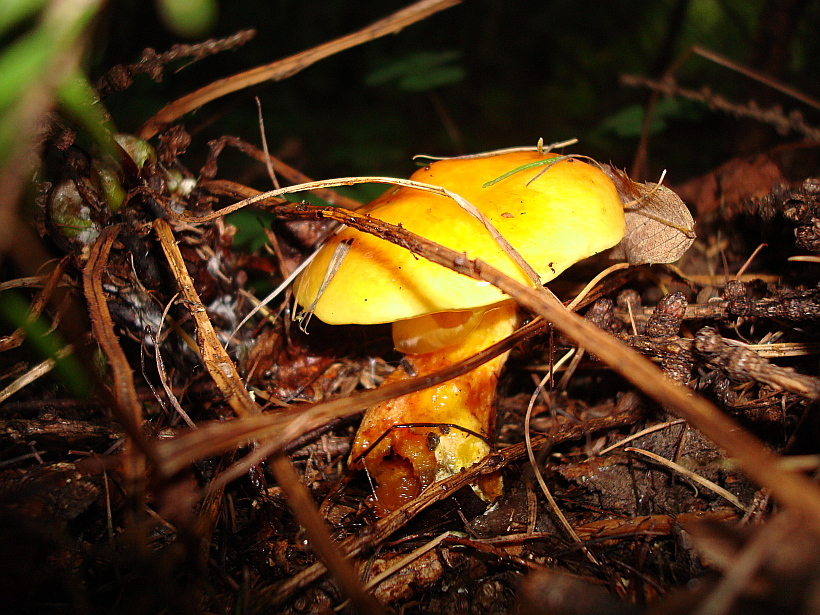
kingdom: Fungi
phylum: Basidiomycota
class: Agaricomycetes
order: Boletales
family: Suillaceae
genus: Suillus
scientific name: Suillus grevillei
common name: Larch bolete
